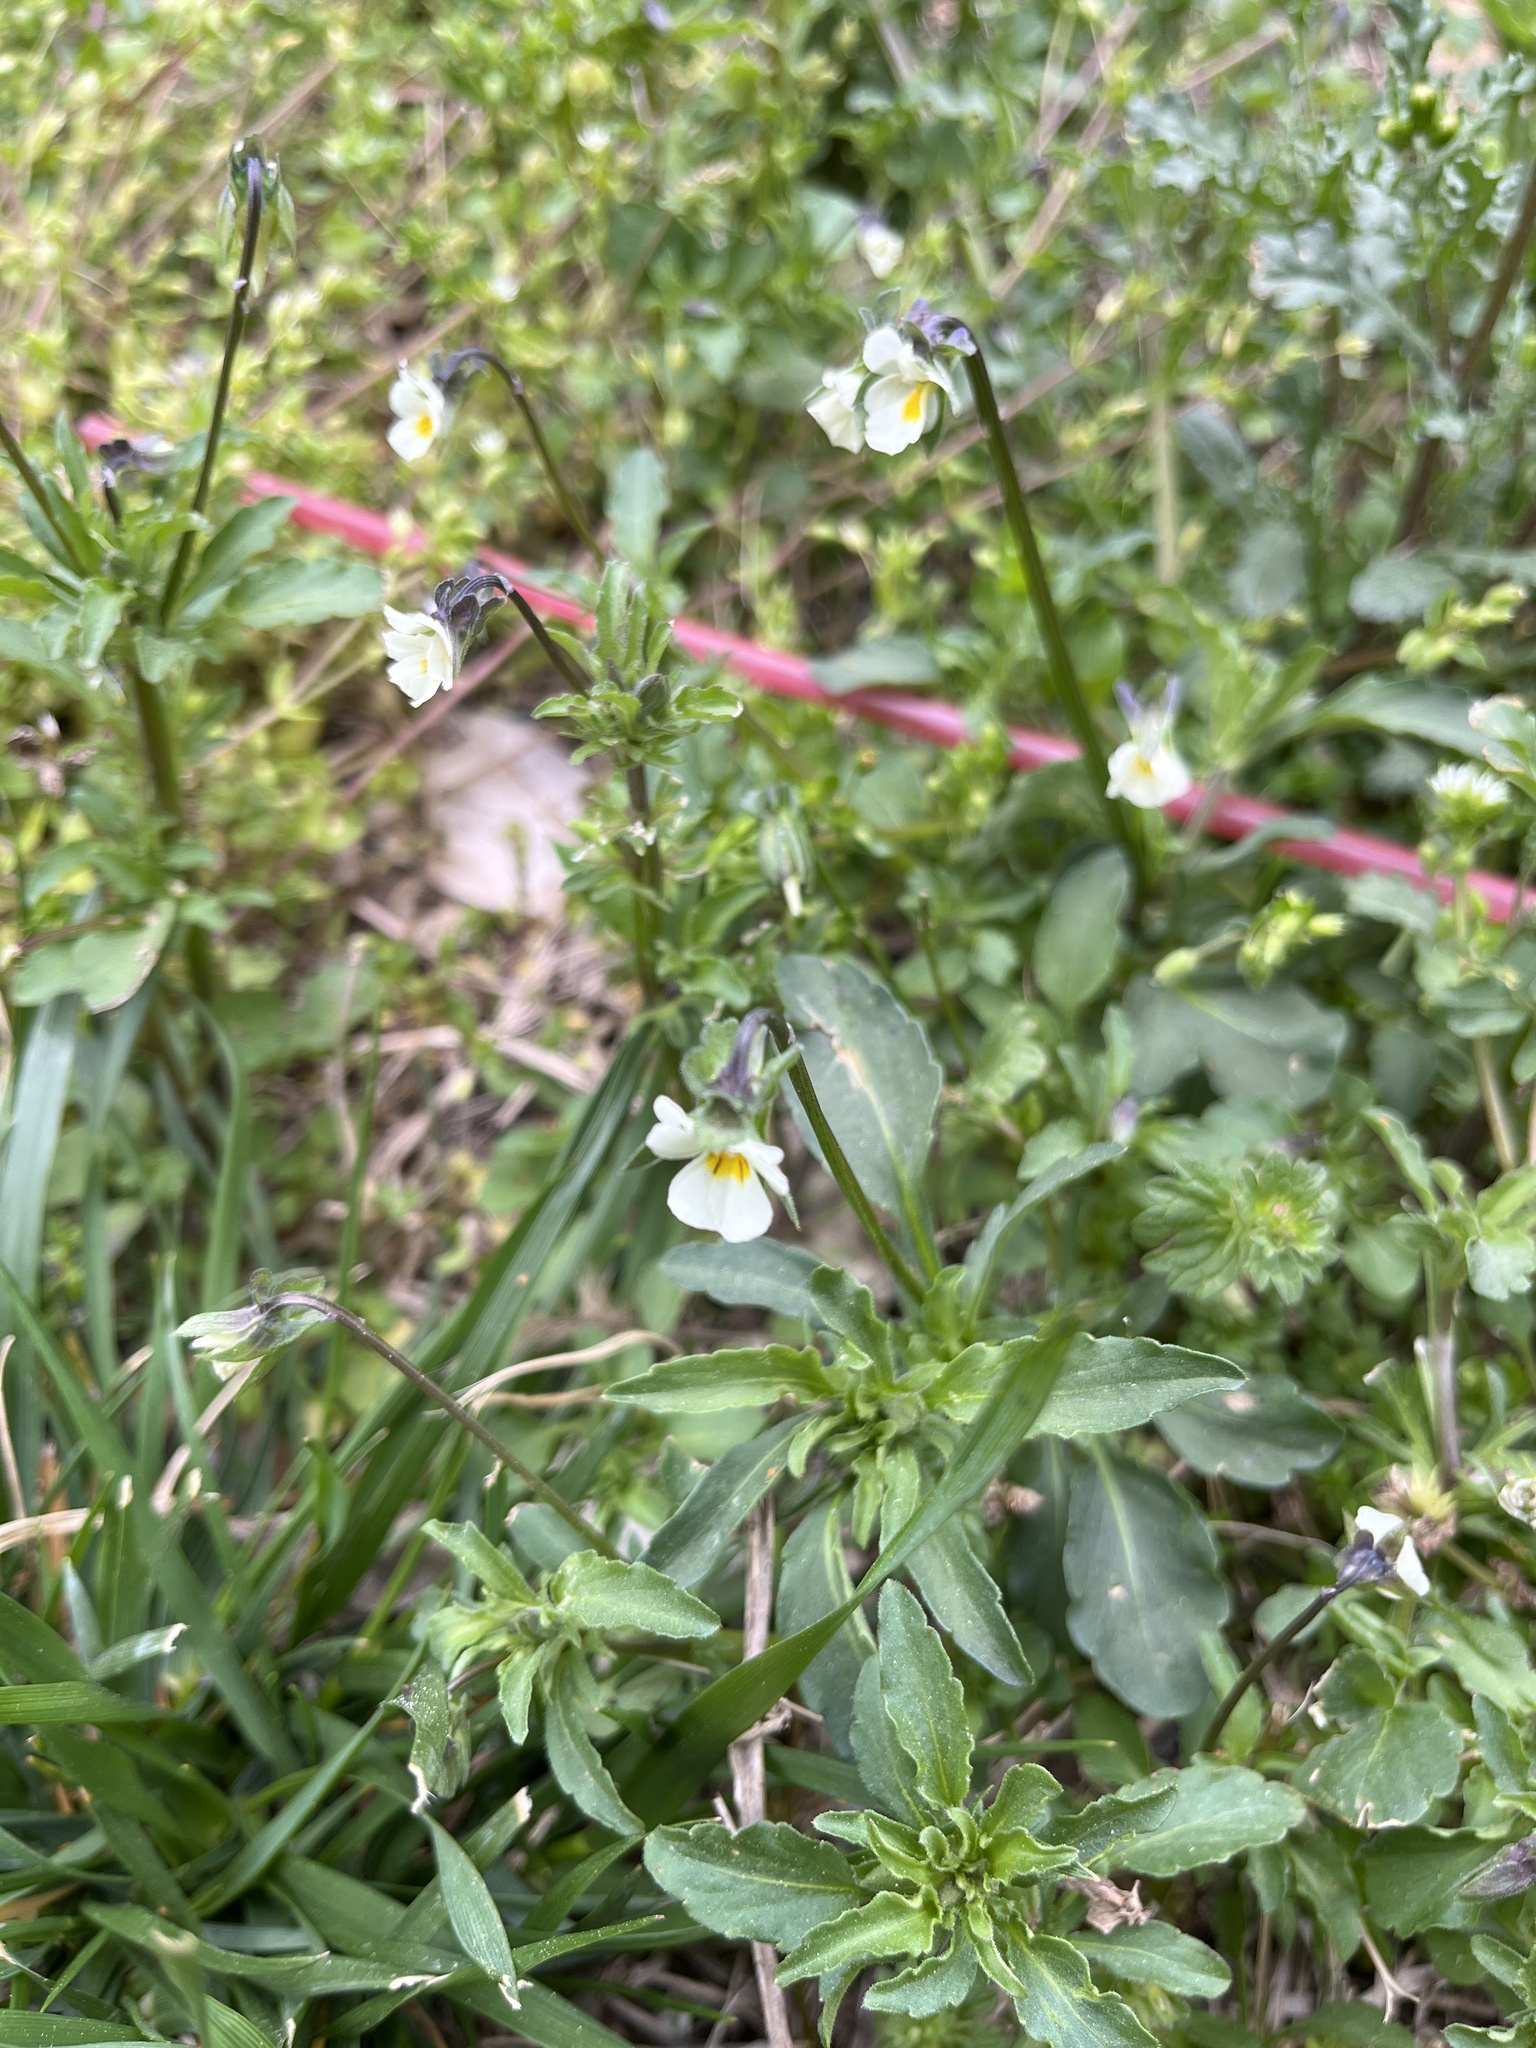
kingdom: Plantae
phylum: Tracheophyta
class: Magnoliopsida
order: Malpighiales
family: Violaceae
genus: Viola
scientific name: Viola arvensis
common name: Field pansy
